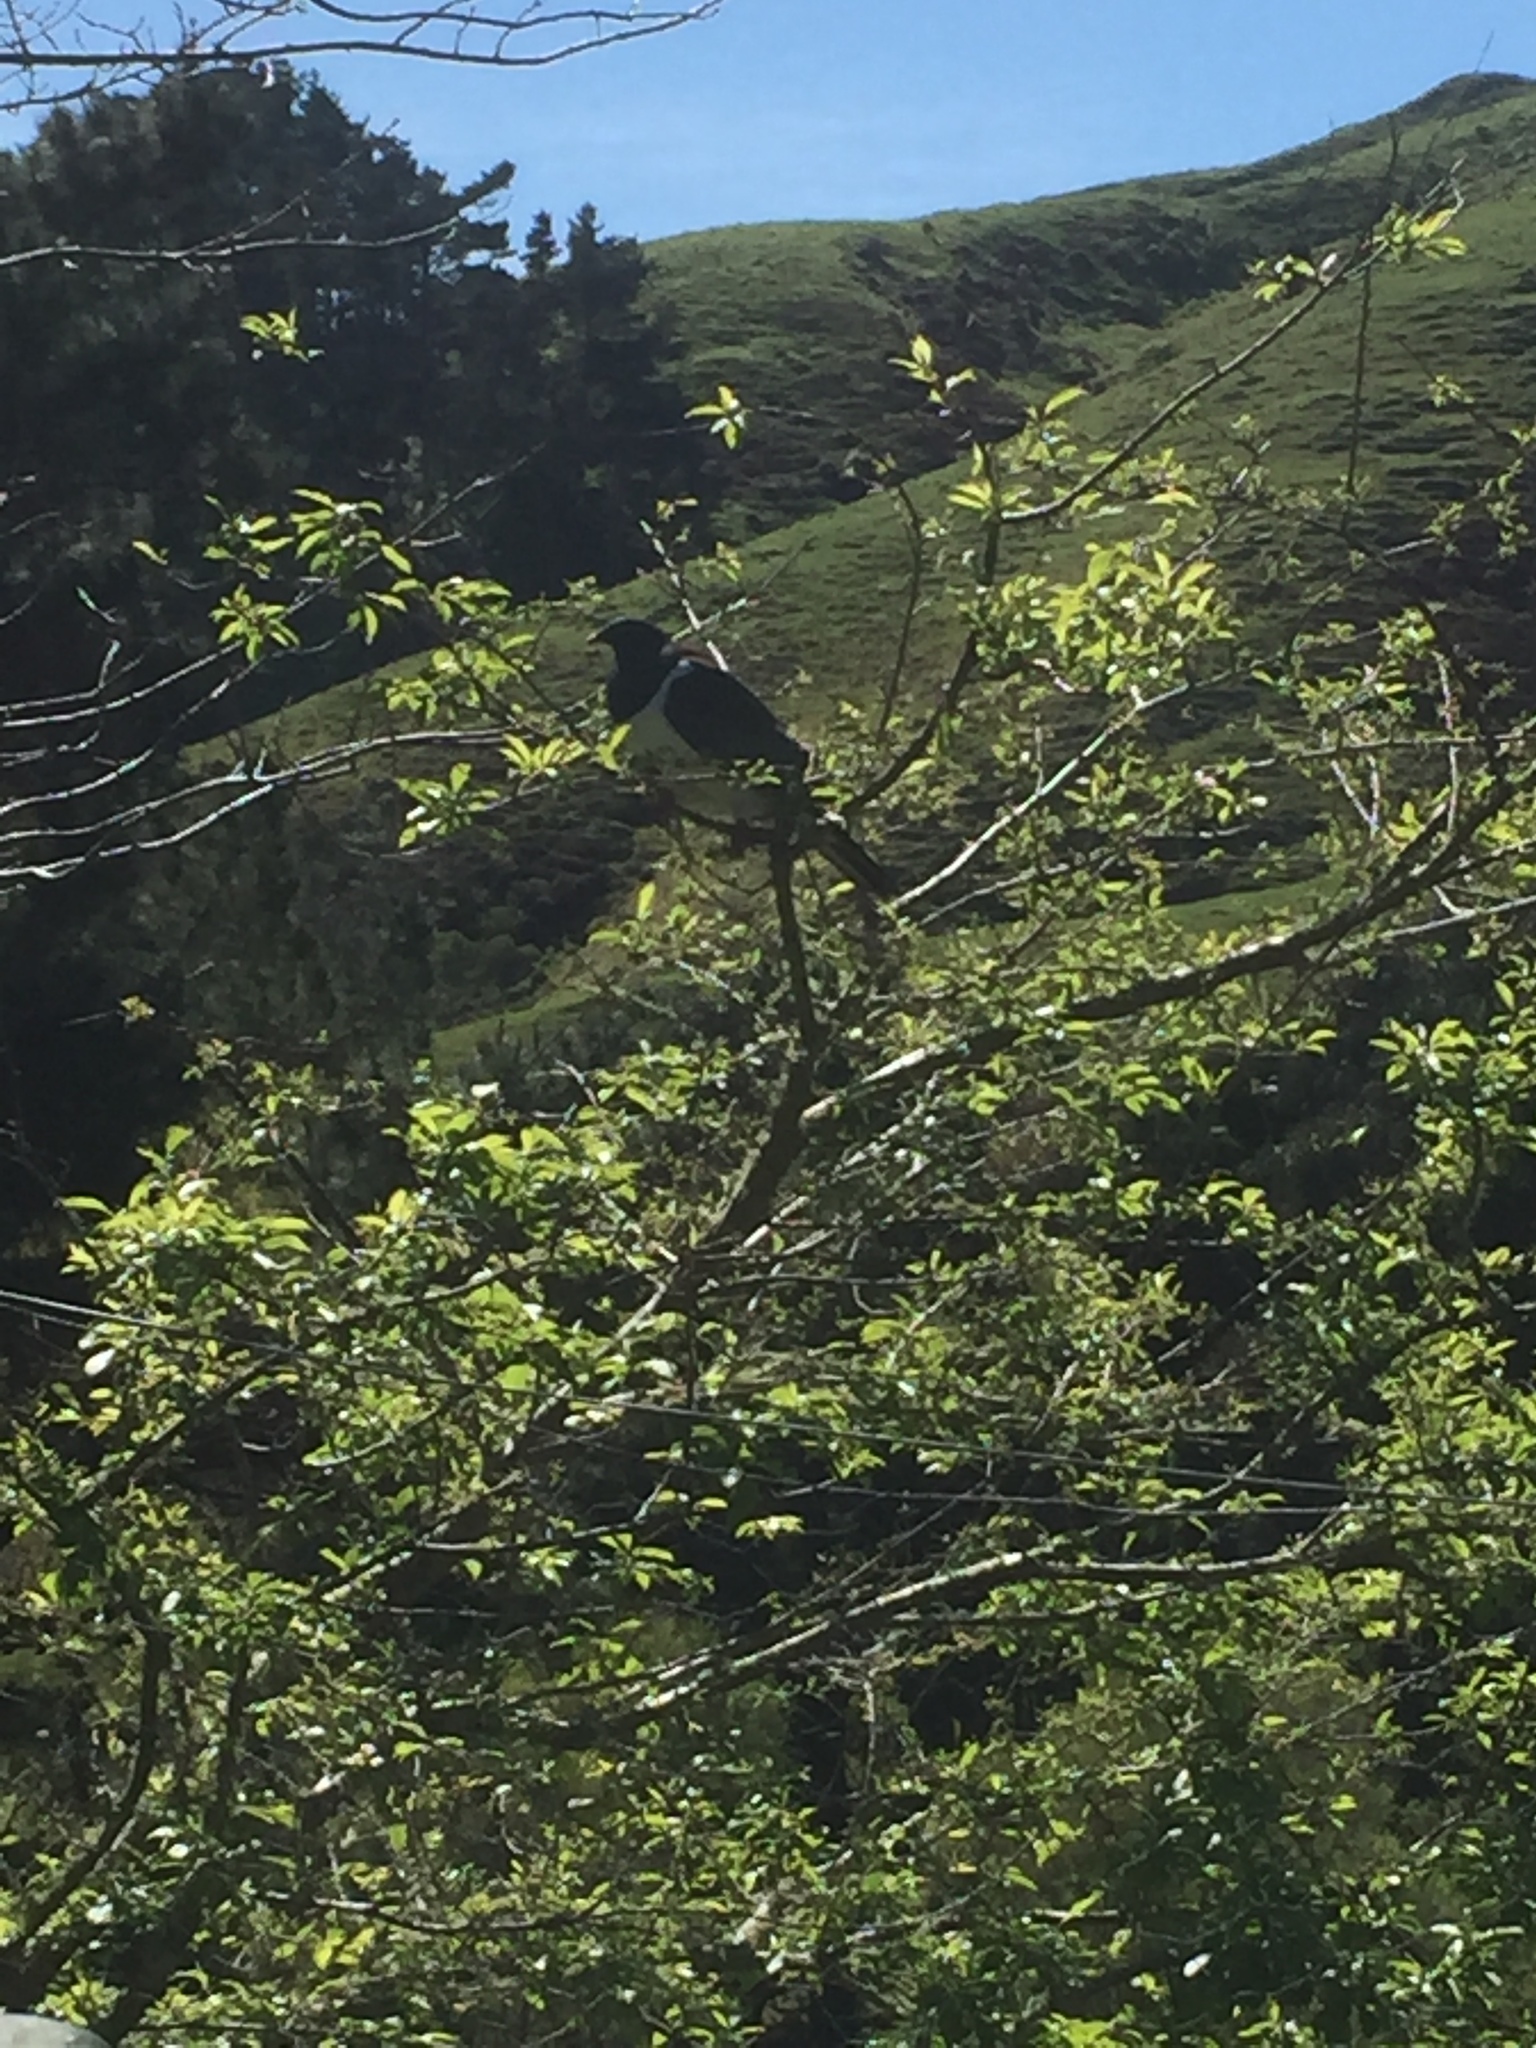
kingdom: Animalia
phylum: Chordata
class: Aves
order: Columbiformes
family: Columbidae
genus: Hemiphaga
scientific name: Hemiphaga novaeseelandiae
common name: New zealand pigeon
